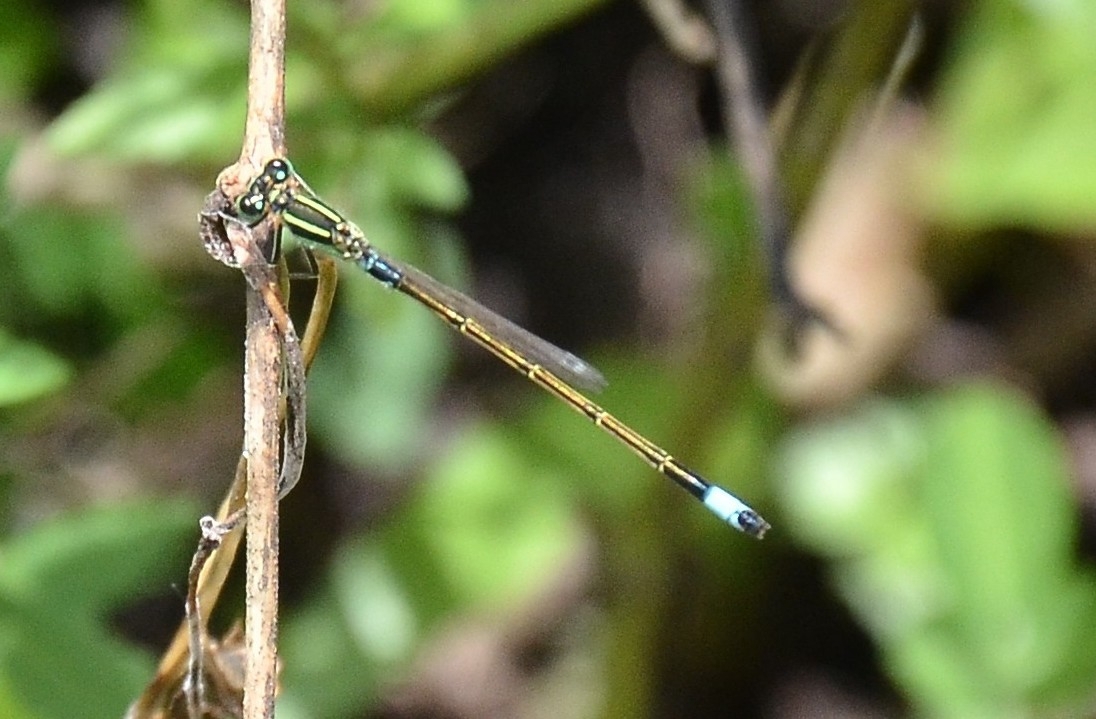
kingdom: Animalia
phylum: Arthropoda
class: Insecta
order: Odonata
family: Coenagrionidae
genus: Ischnura
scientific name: Ischnura senegalensis
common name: Tropical bluetail
